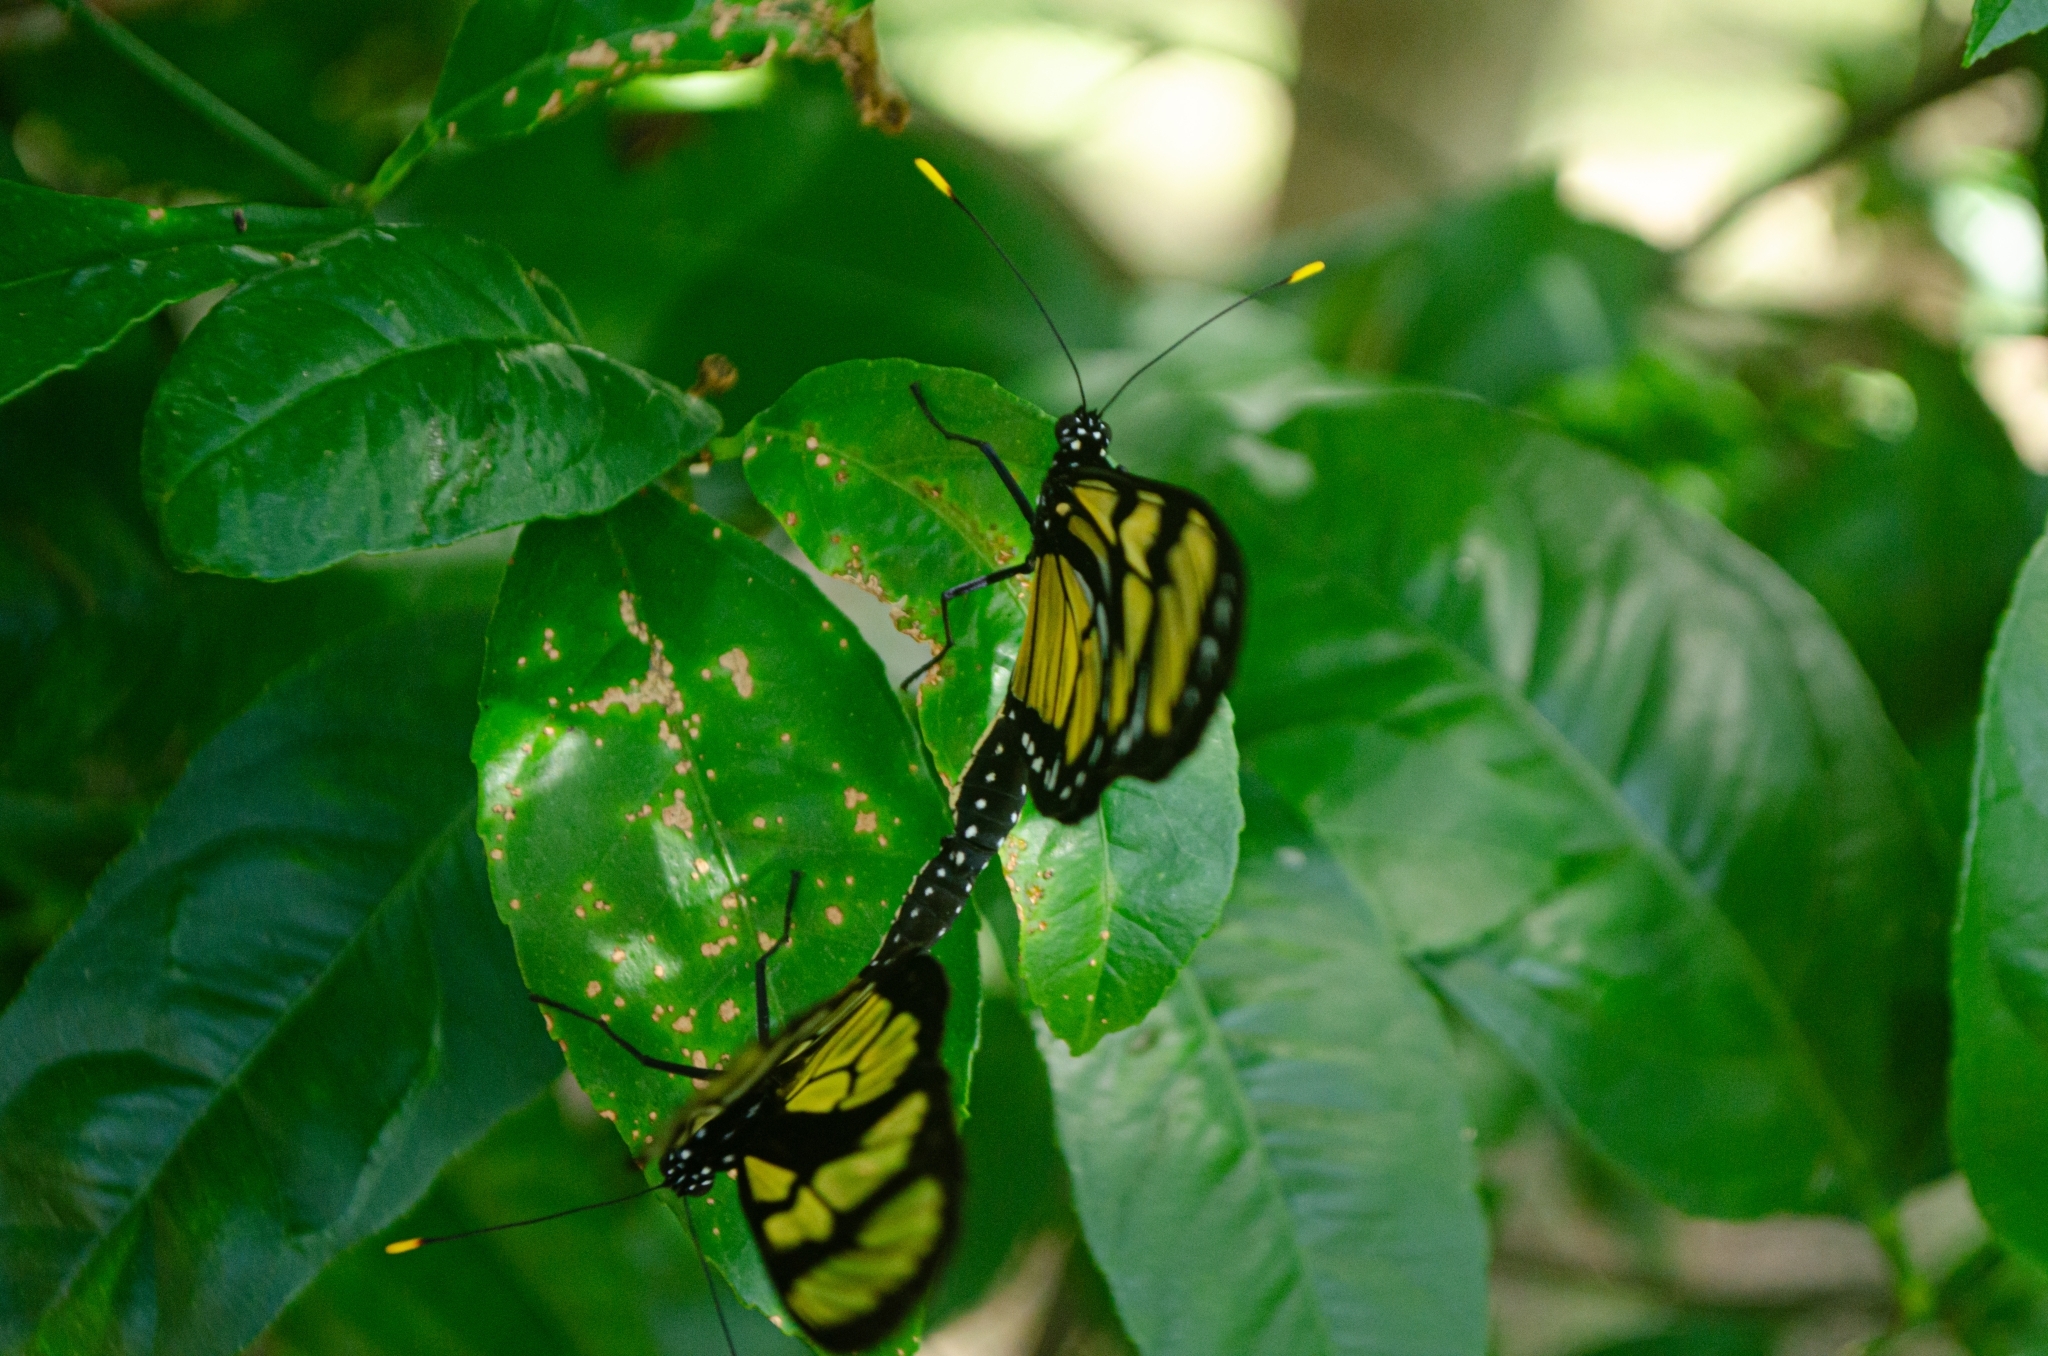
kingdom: Animalia
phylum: Arthropoda
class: Insecta
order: Lepidoptera
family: Nymphalidae
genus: Methona
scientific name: Methona themisto
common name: Themisto amberwing
